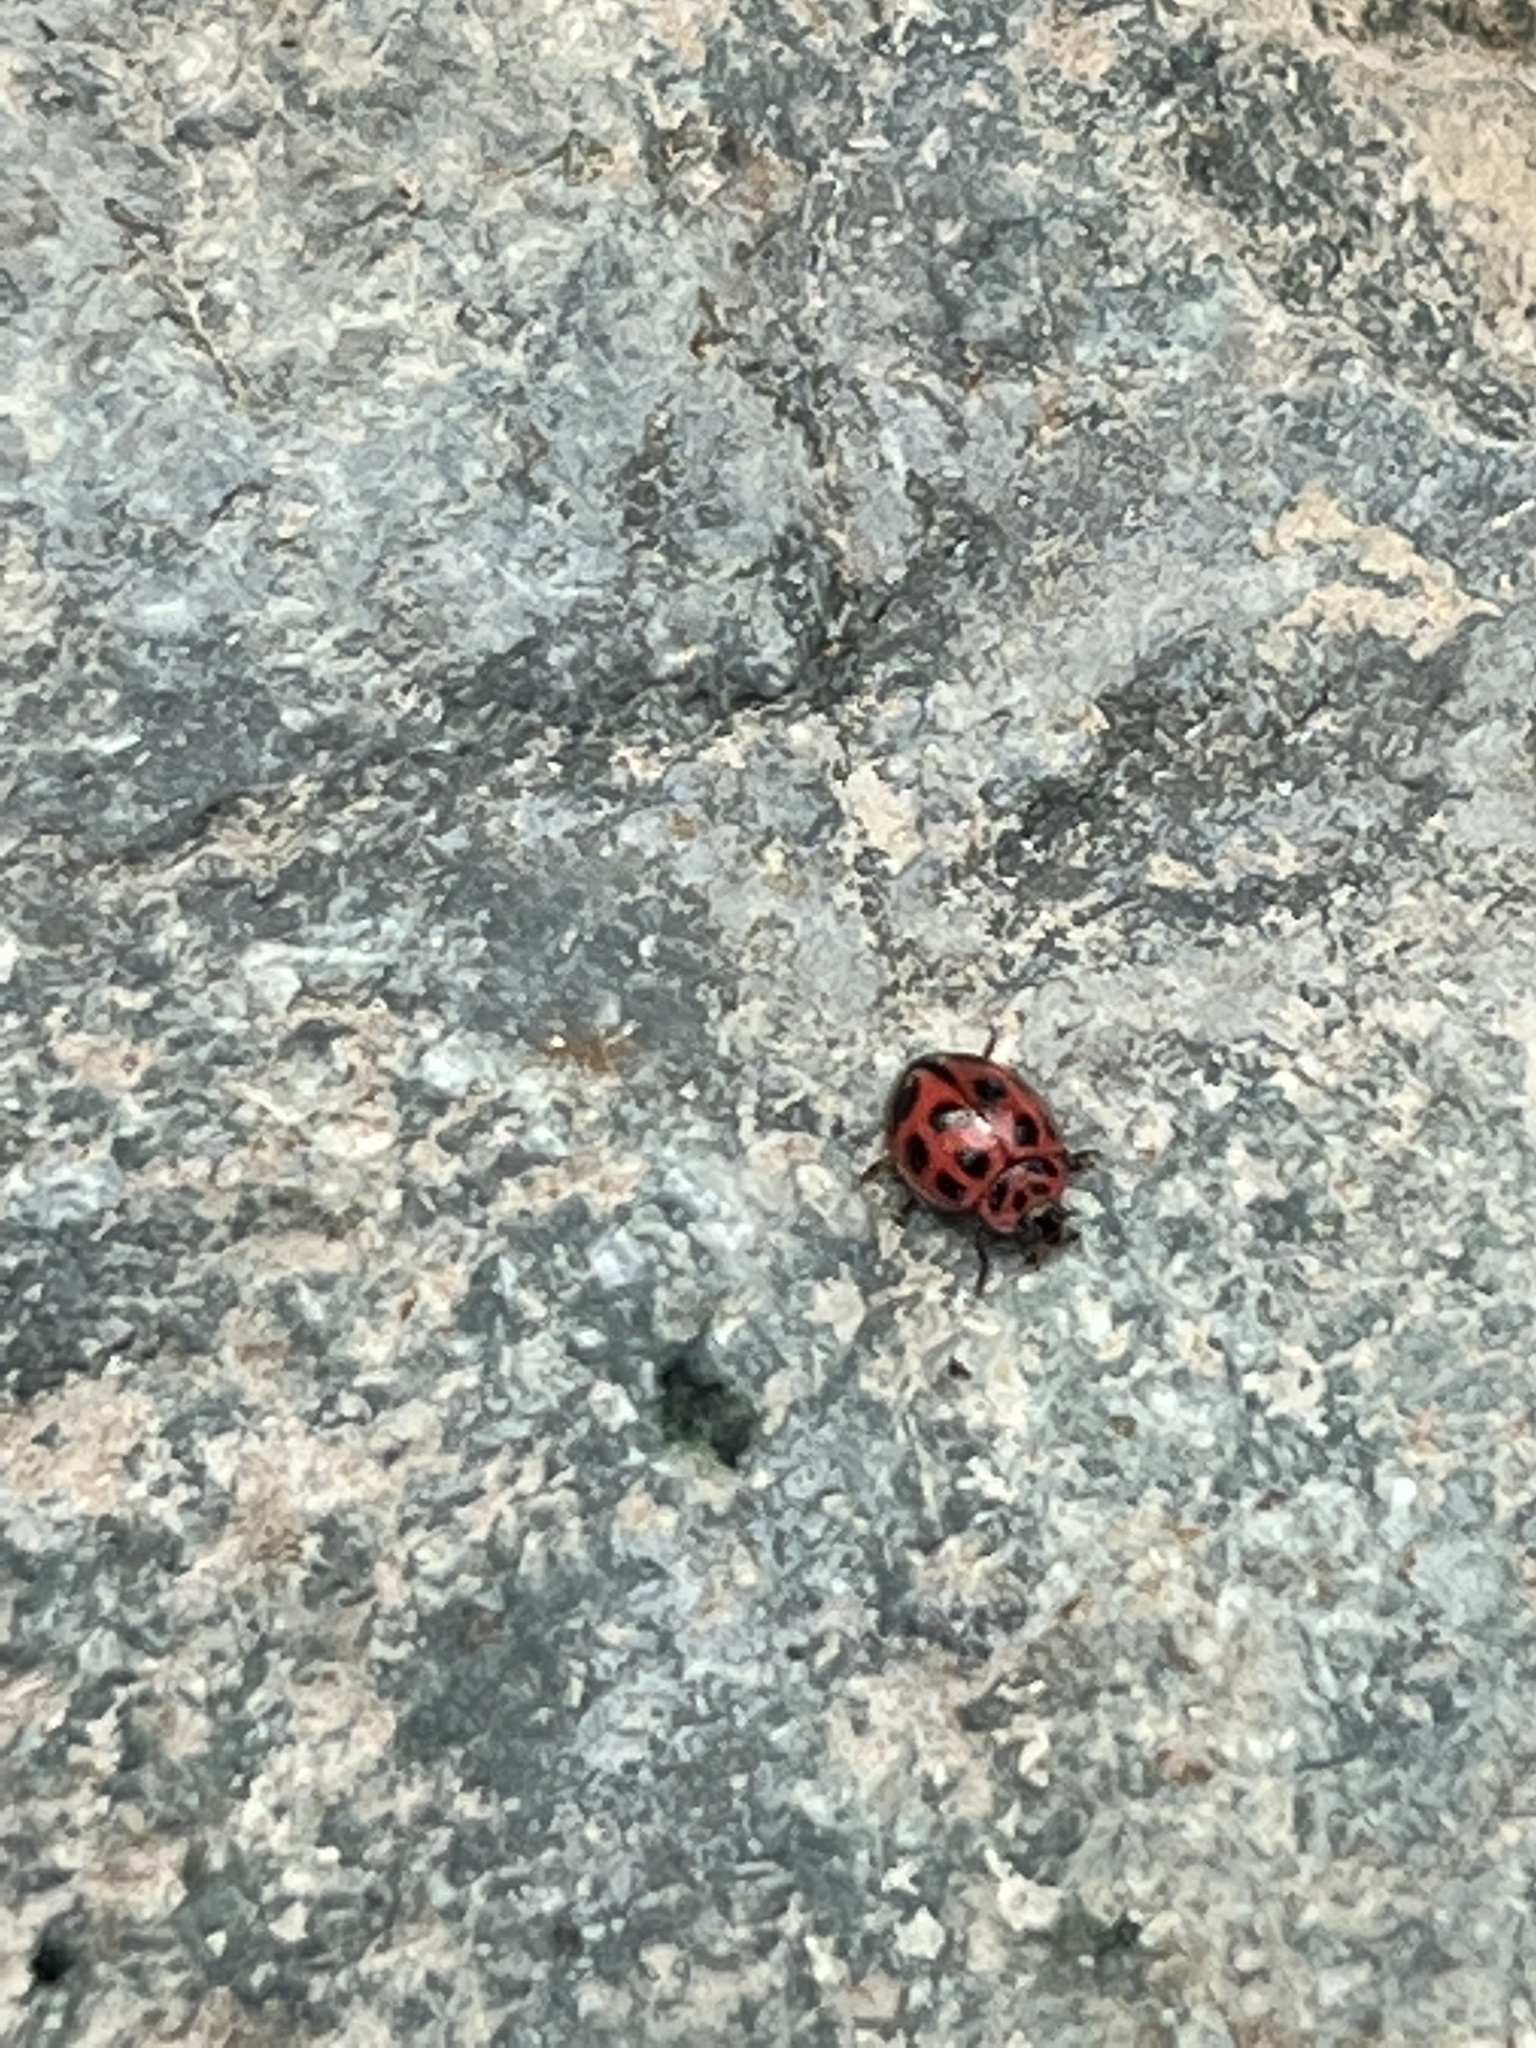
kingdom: Animalia
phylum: Arthropoda
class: Insecta
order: Coleoptera
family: Coccinellidae
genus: Neoharmonia
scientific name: Neoharmonia venusta
